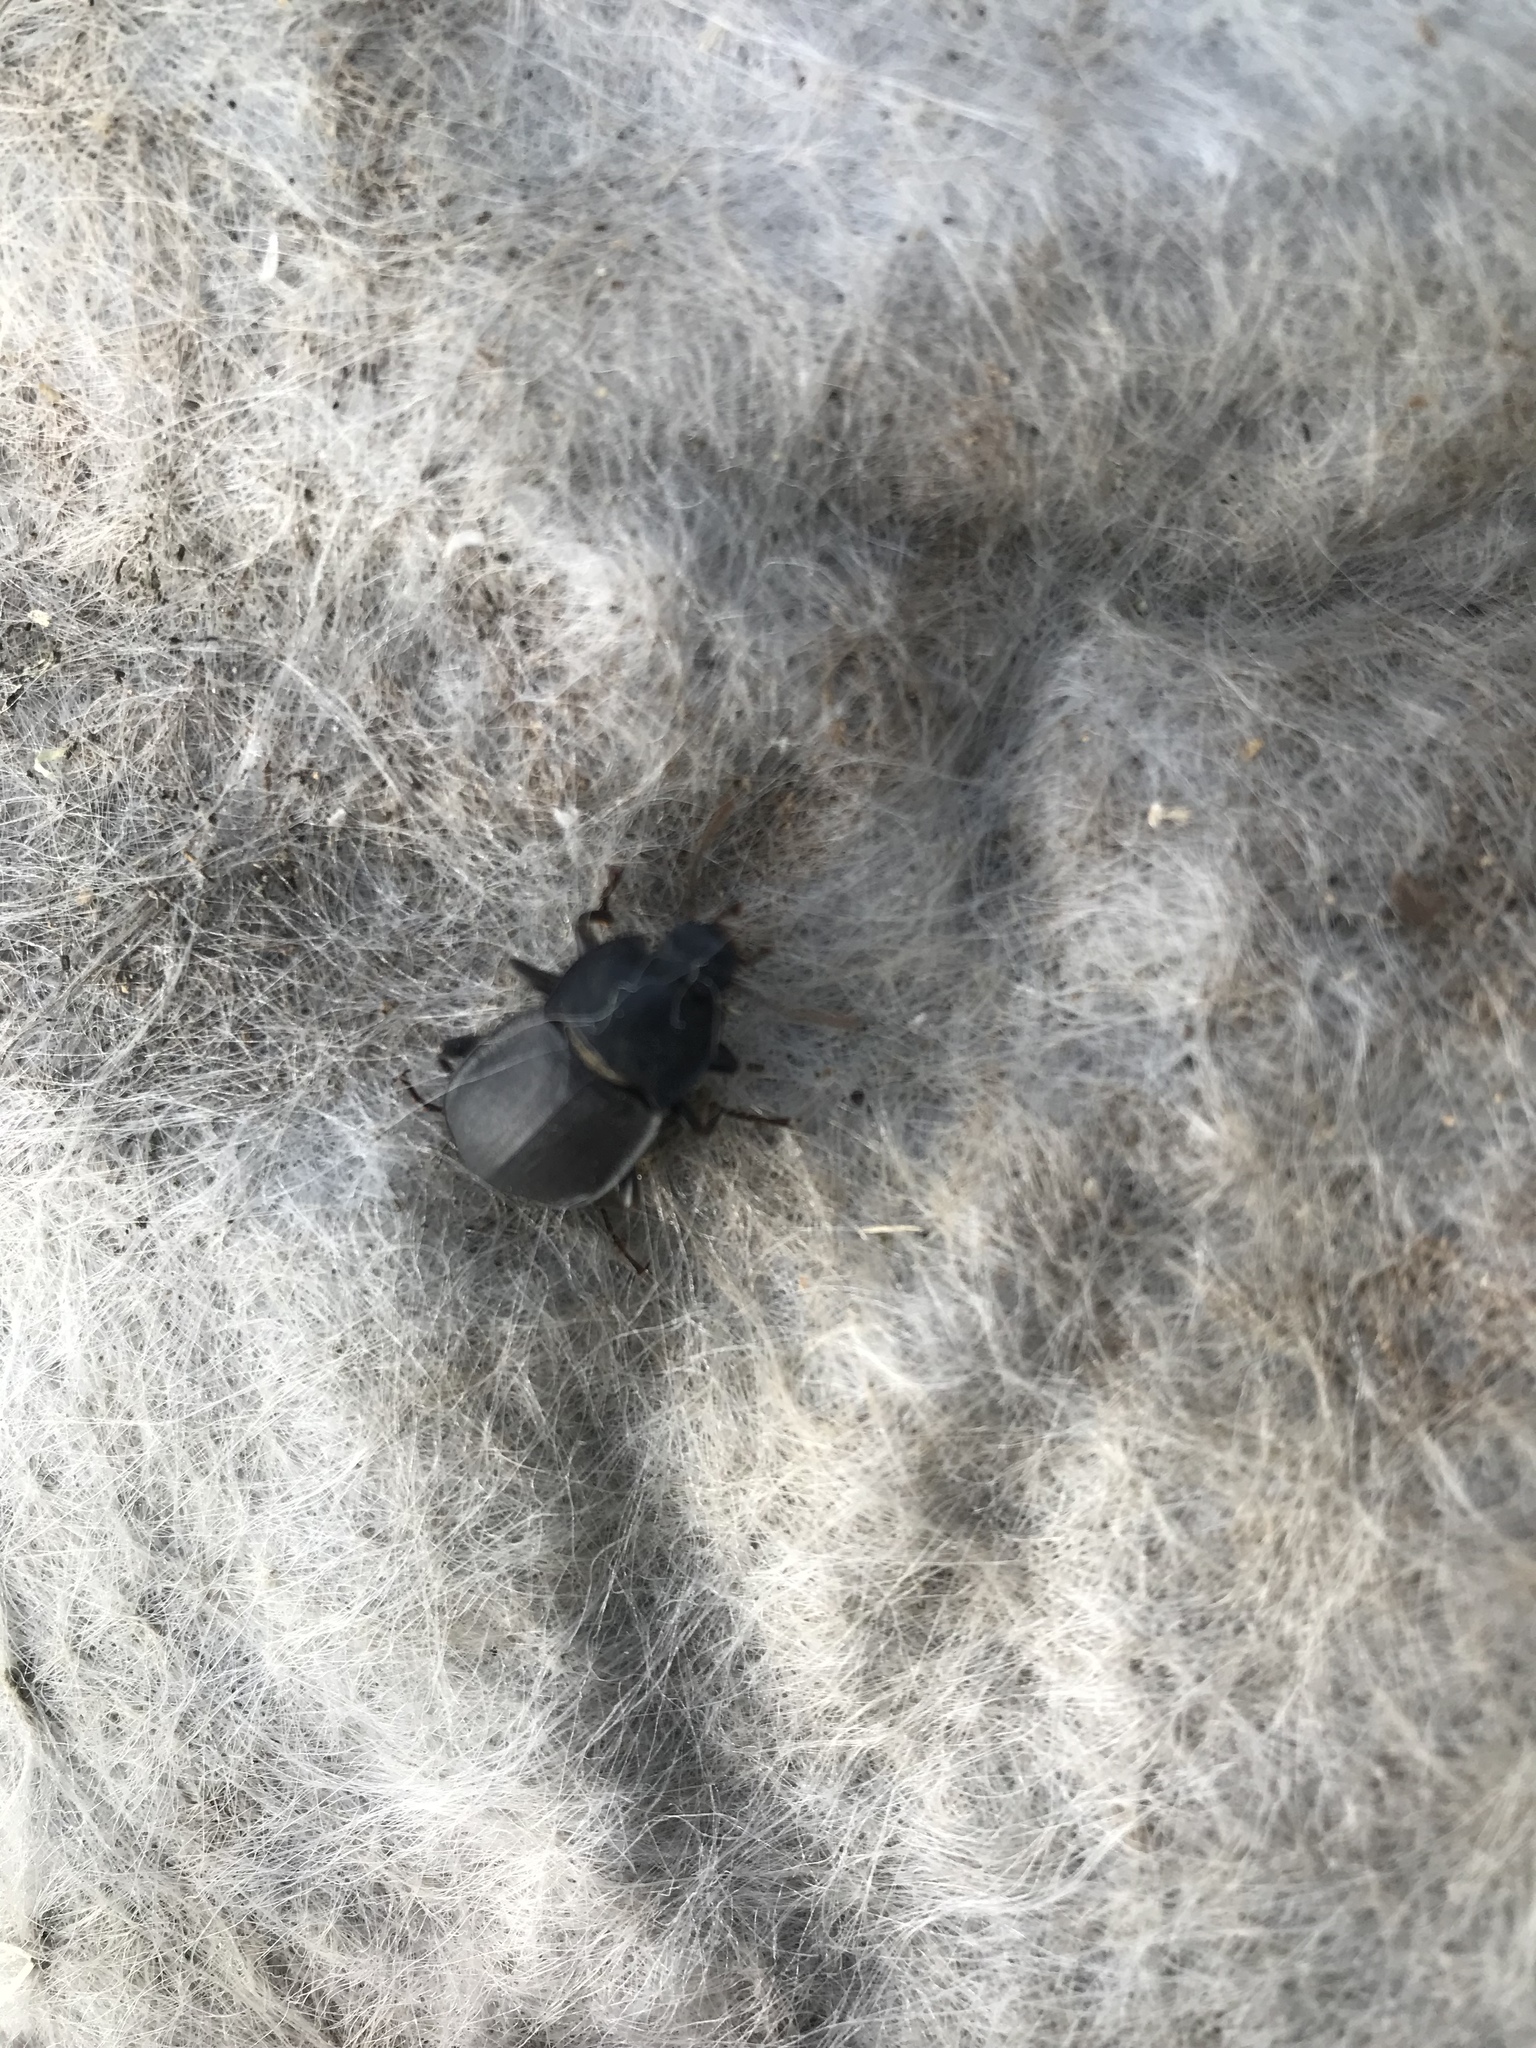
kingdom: Animalia
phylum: Arthropoda
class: Insecta
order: Coleoptera
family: Tenebrionidae
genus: Mimopeus
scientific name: Mimopeus
